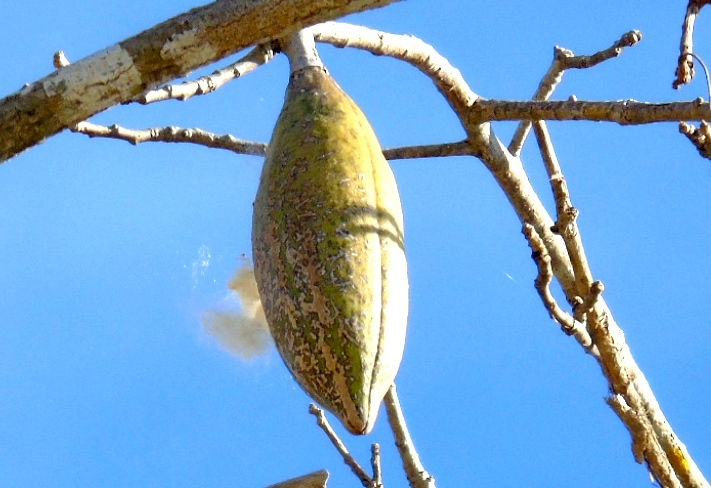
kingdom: Plantae
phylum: Tracheophyta
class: Magnoliopsida
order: Malvales
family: Malvaceae
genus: Ceiba
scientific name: Ceiba aesculifolia
